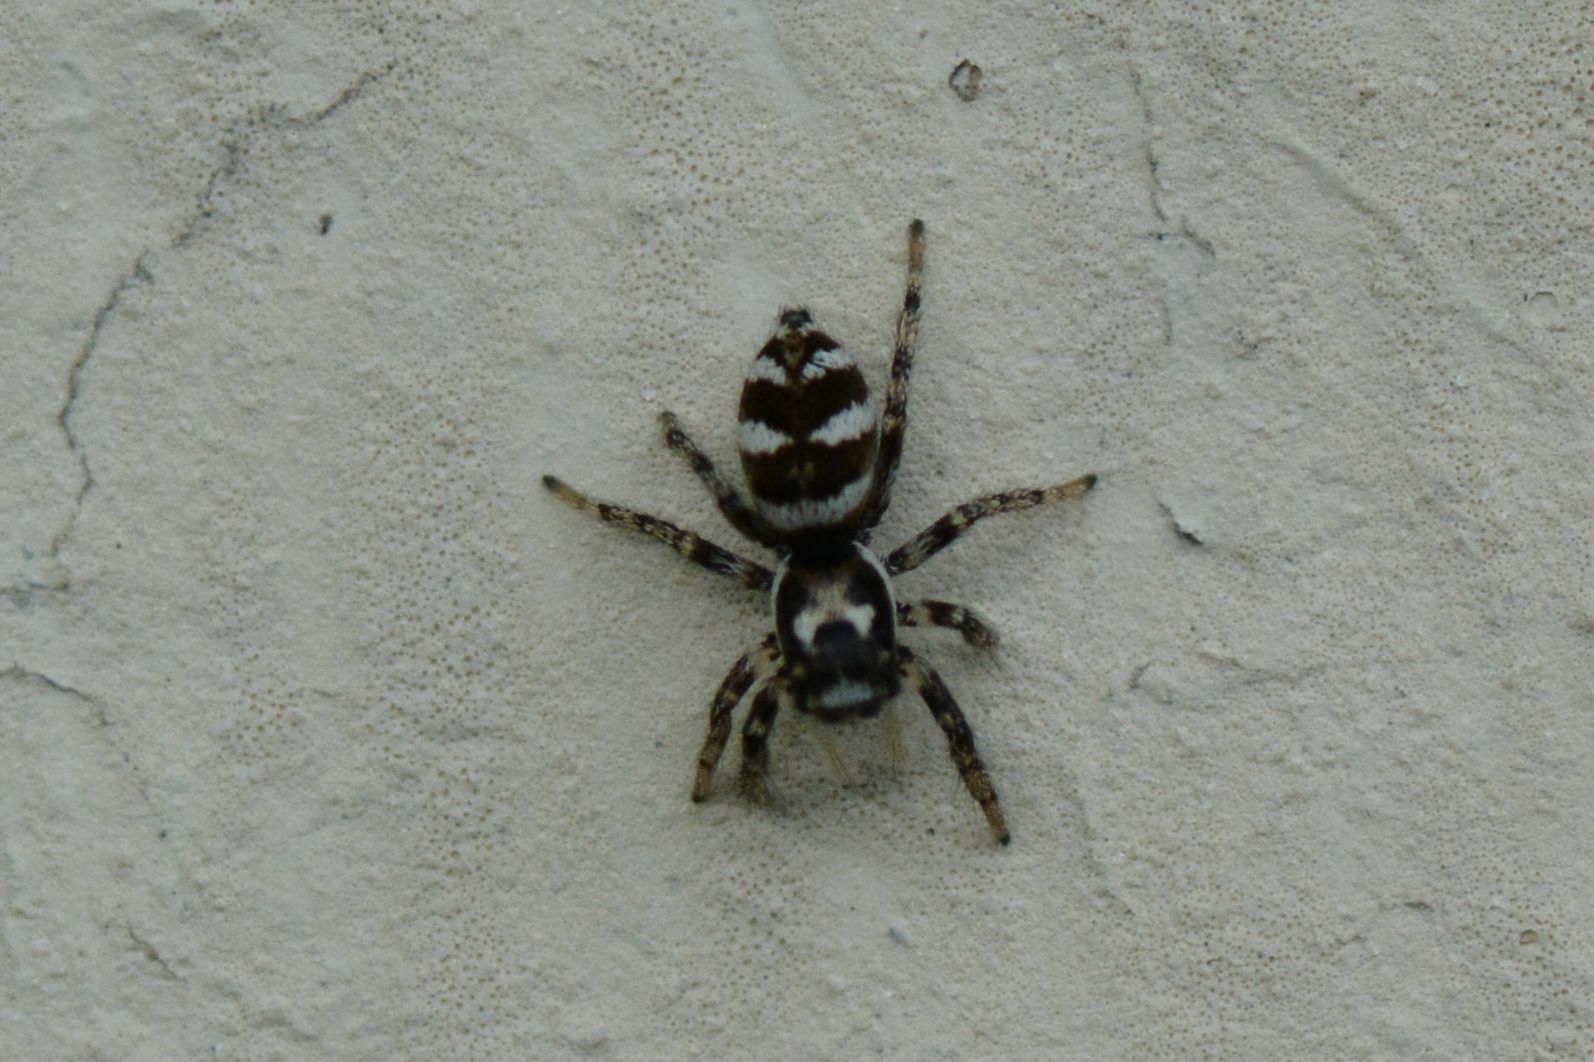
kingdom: Animalia
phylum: Arthropoda
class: Arachnida
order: Araneae
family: Salticidae
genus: Salticus
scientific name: Salticus scenicus
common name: Zebra jumper
